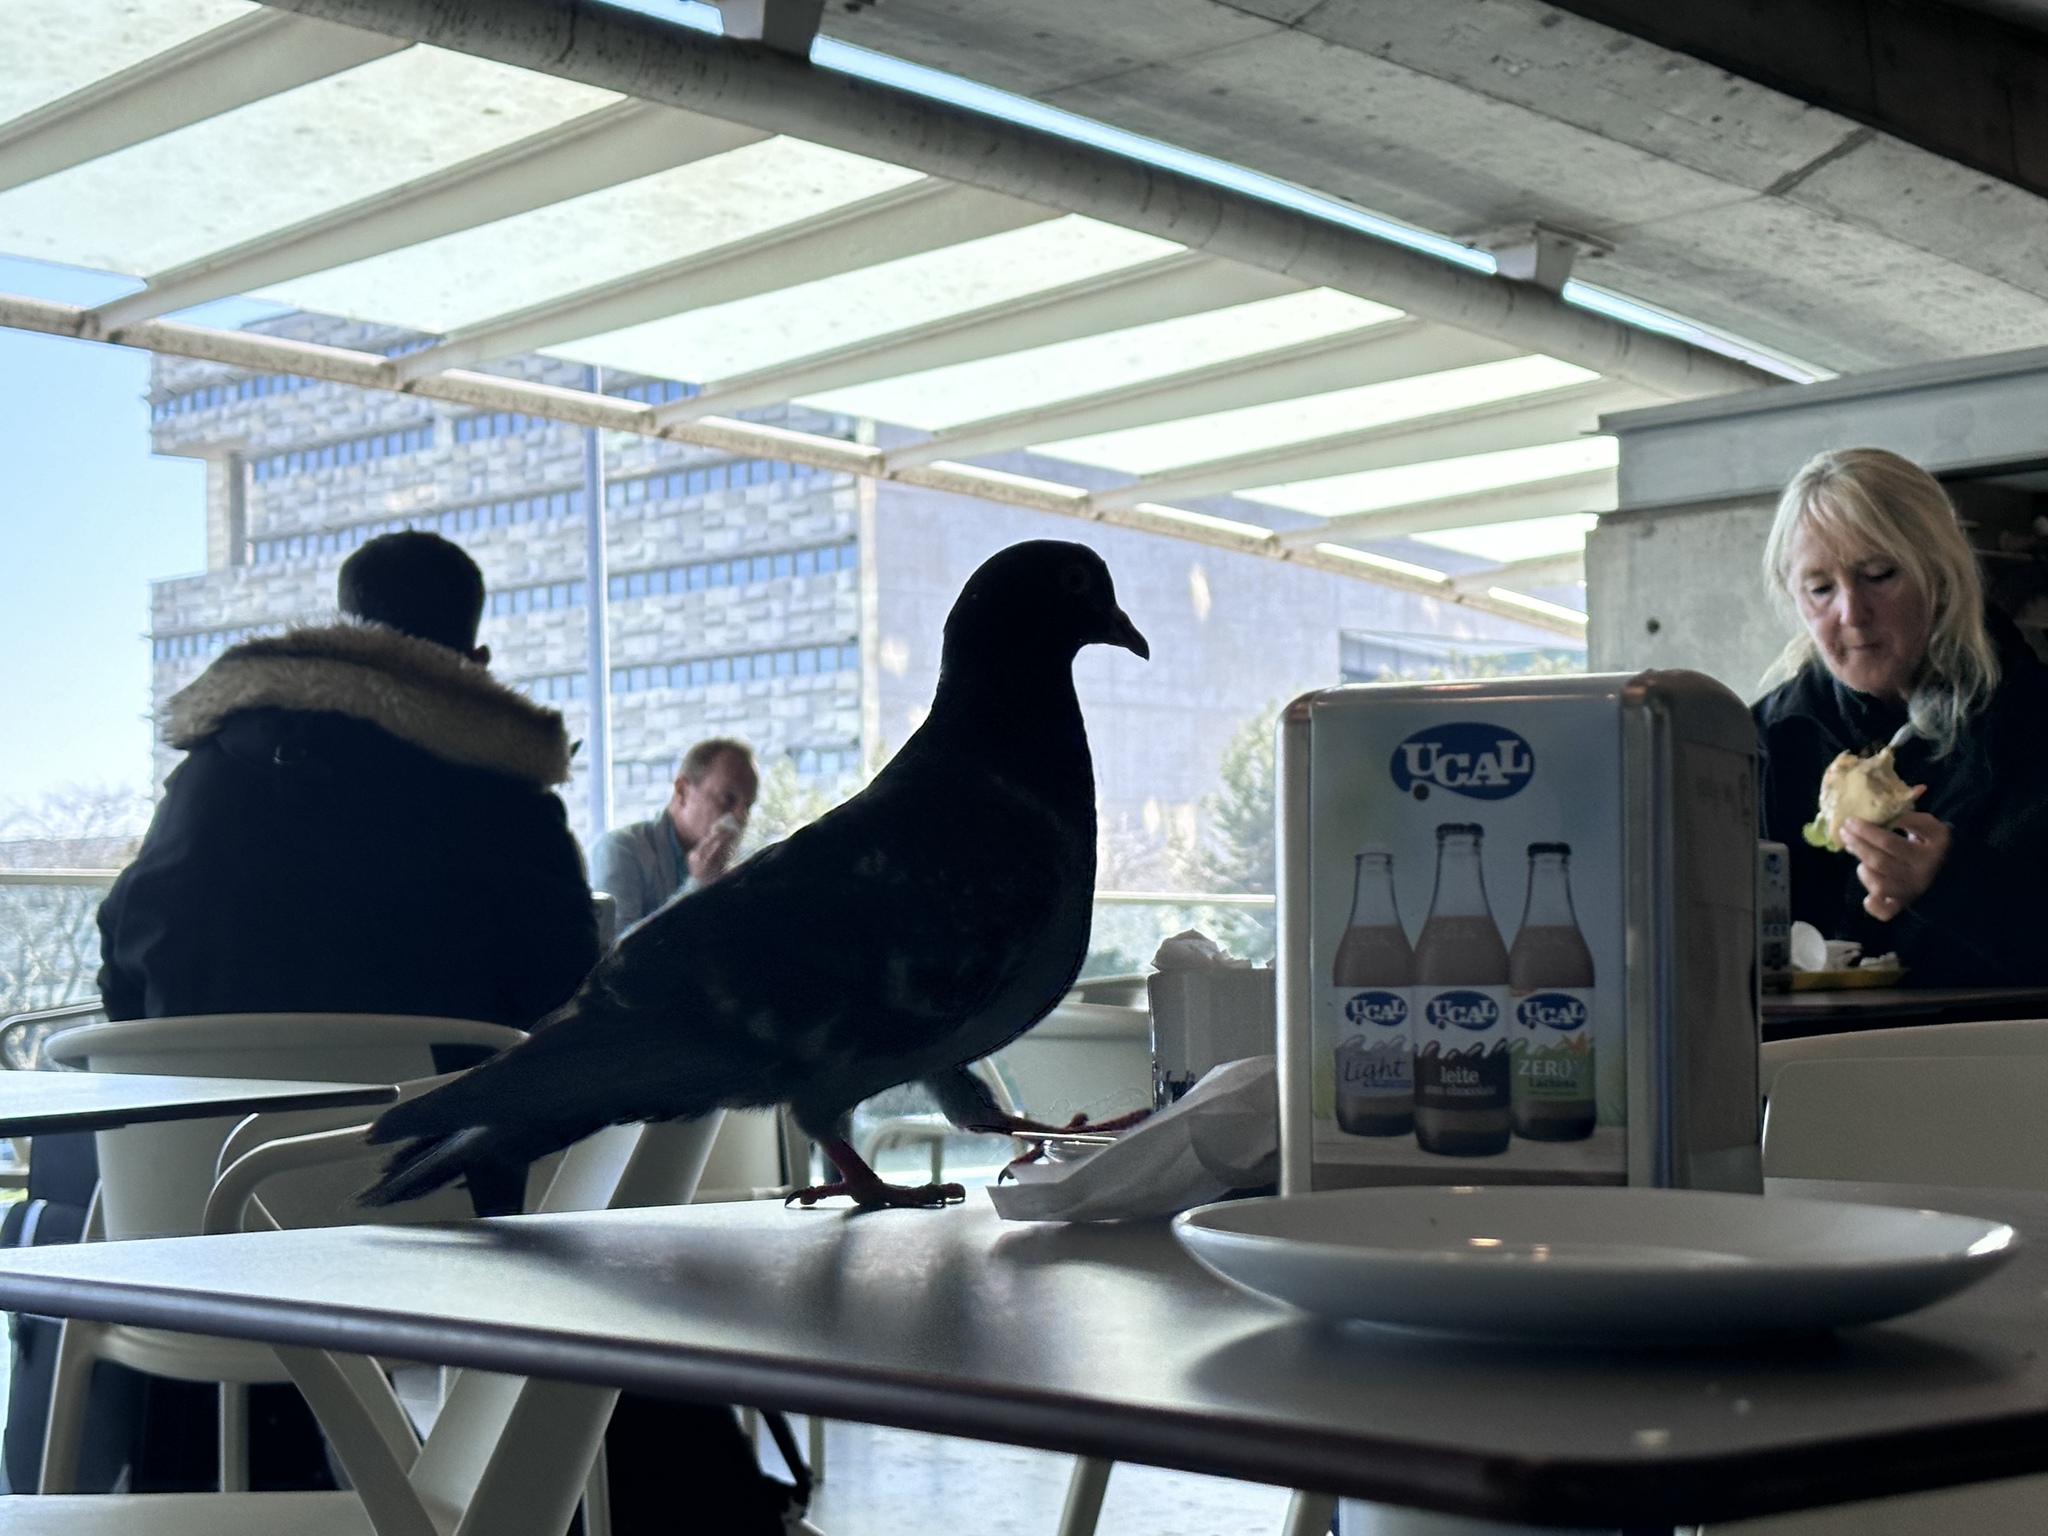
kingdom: Animalia
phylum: Chordata
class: Aves
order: Columbiformes
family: Columbidae
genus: Columba
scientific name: Columba livia
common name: Rock pigeon
